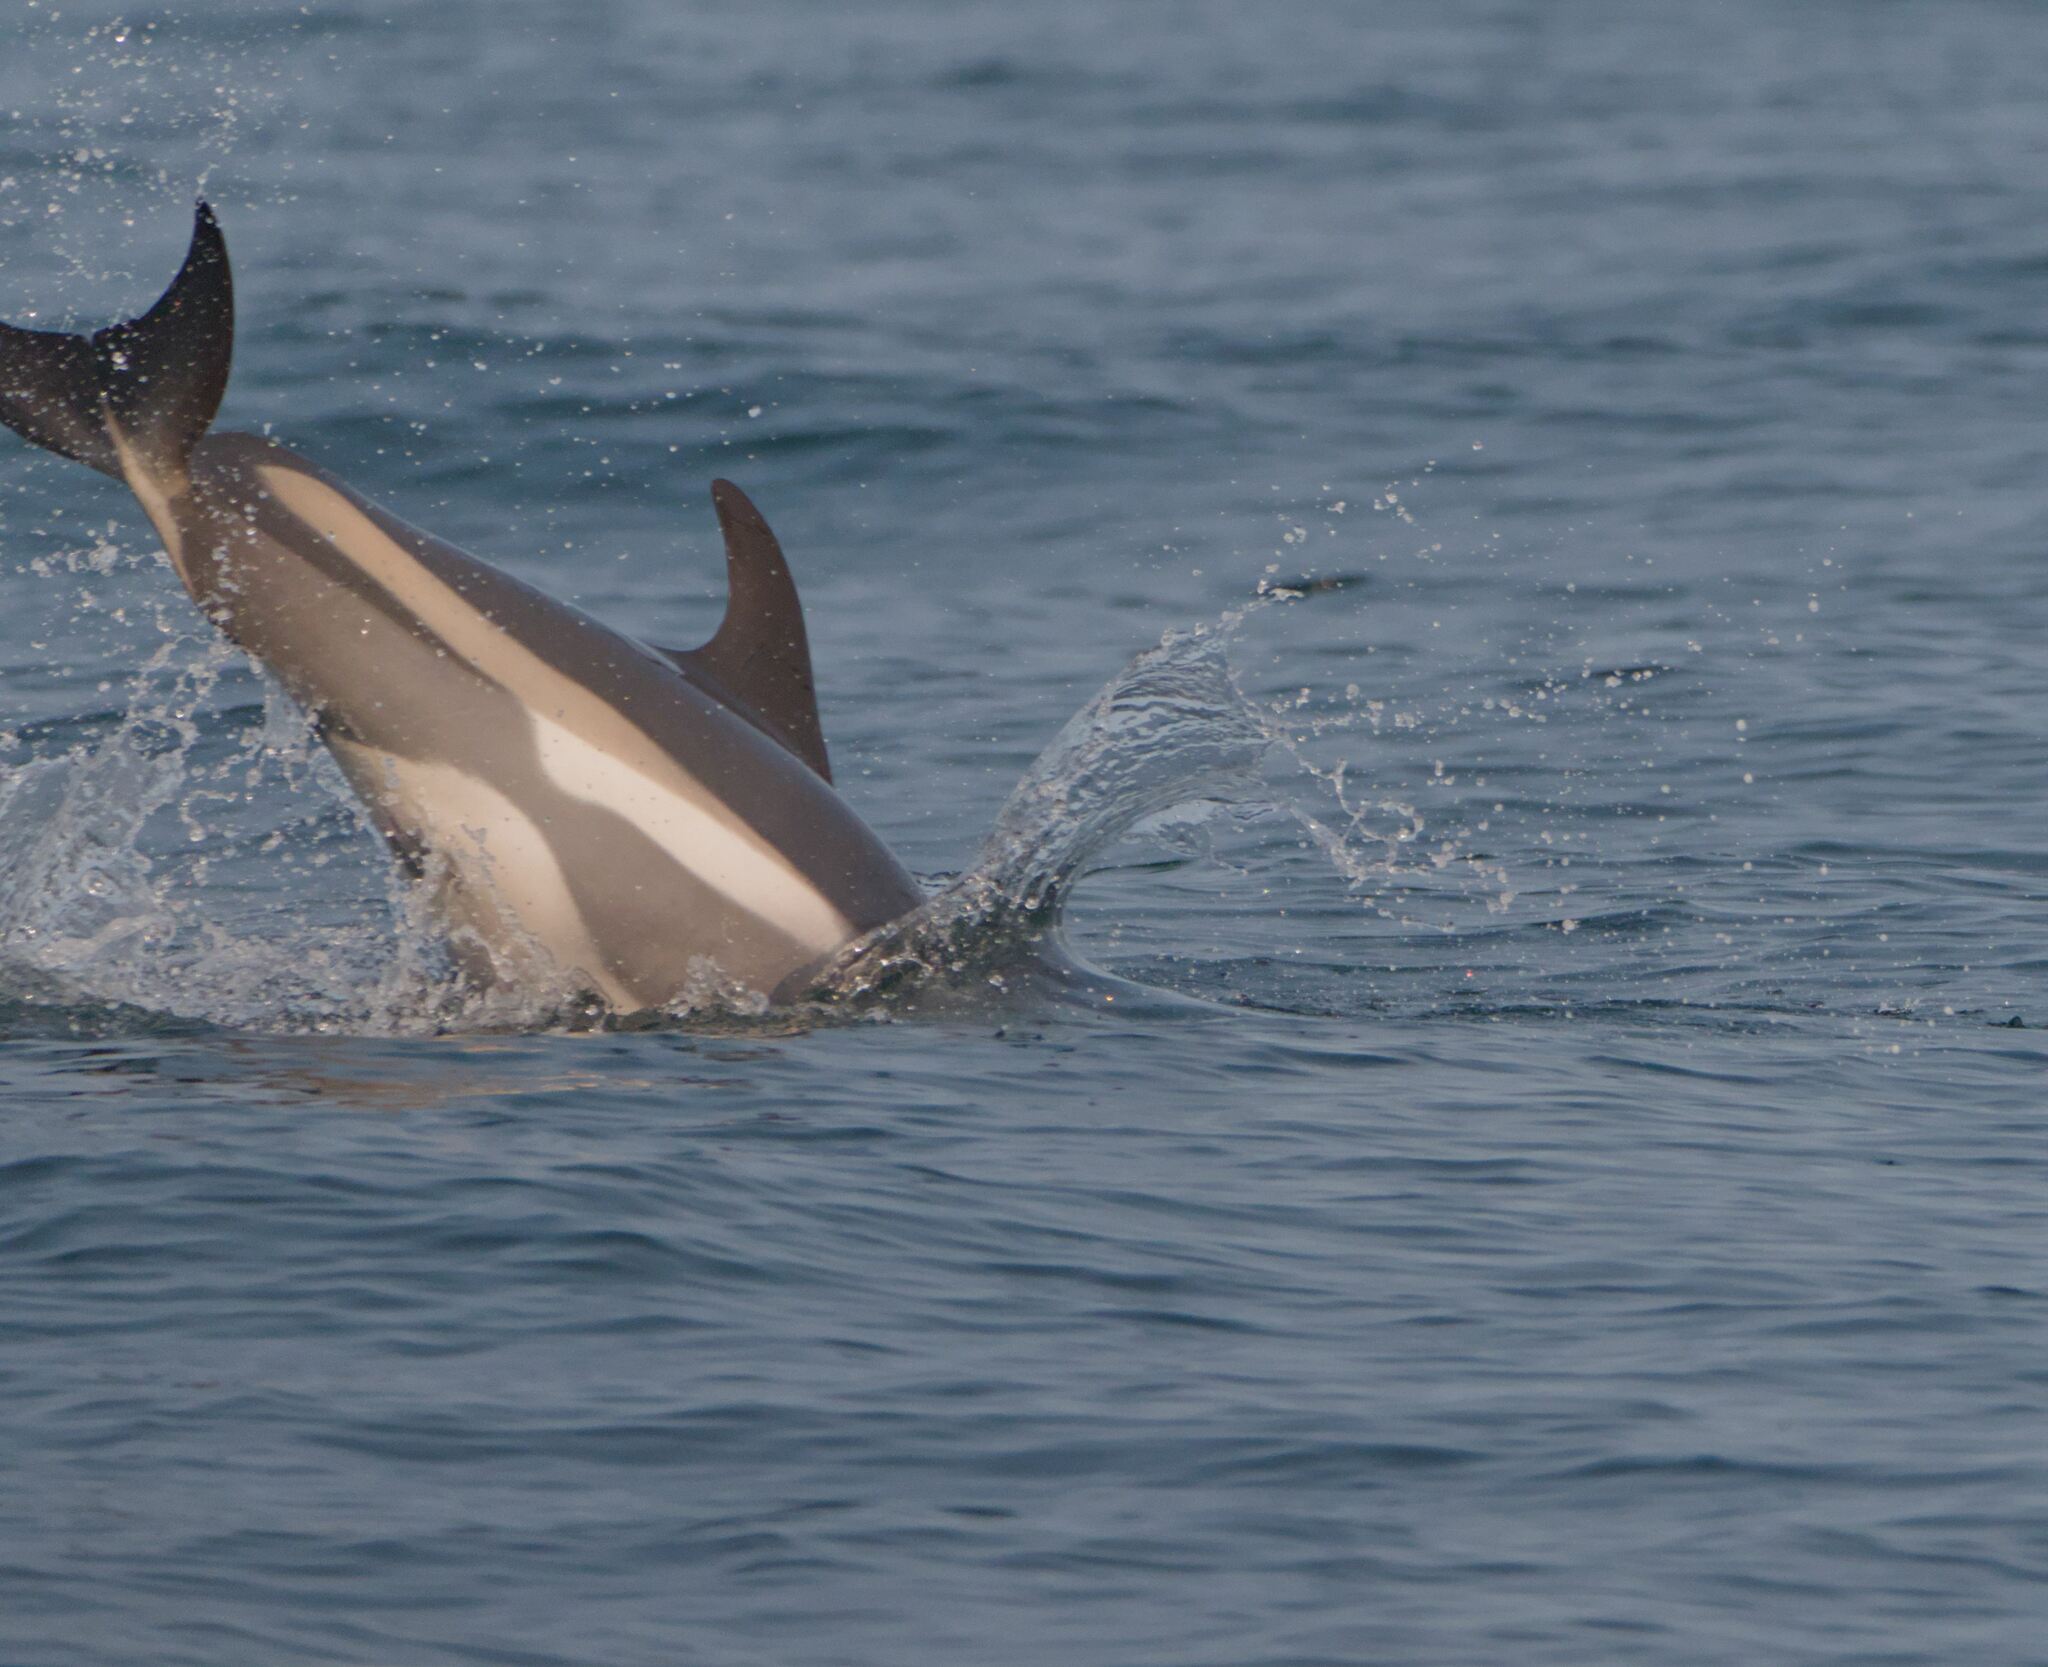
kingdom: Animalia
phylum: Chordata
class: Mammalia
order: Cetacea
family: Delphinidae
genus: Lagenorhynchus
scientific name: Lagenorhynchus acutus
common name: Atlantic white-sided dolphin
